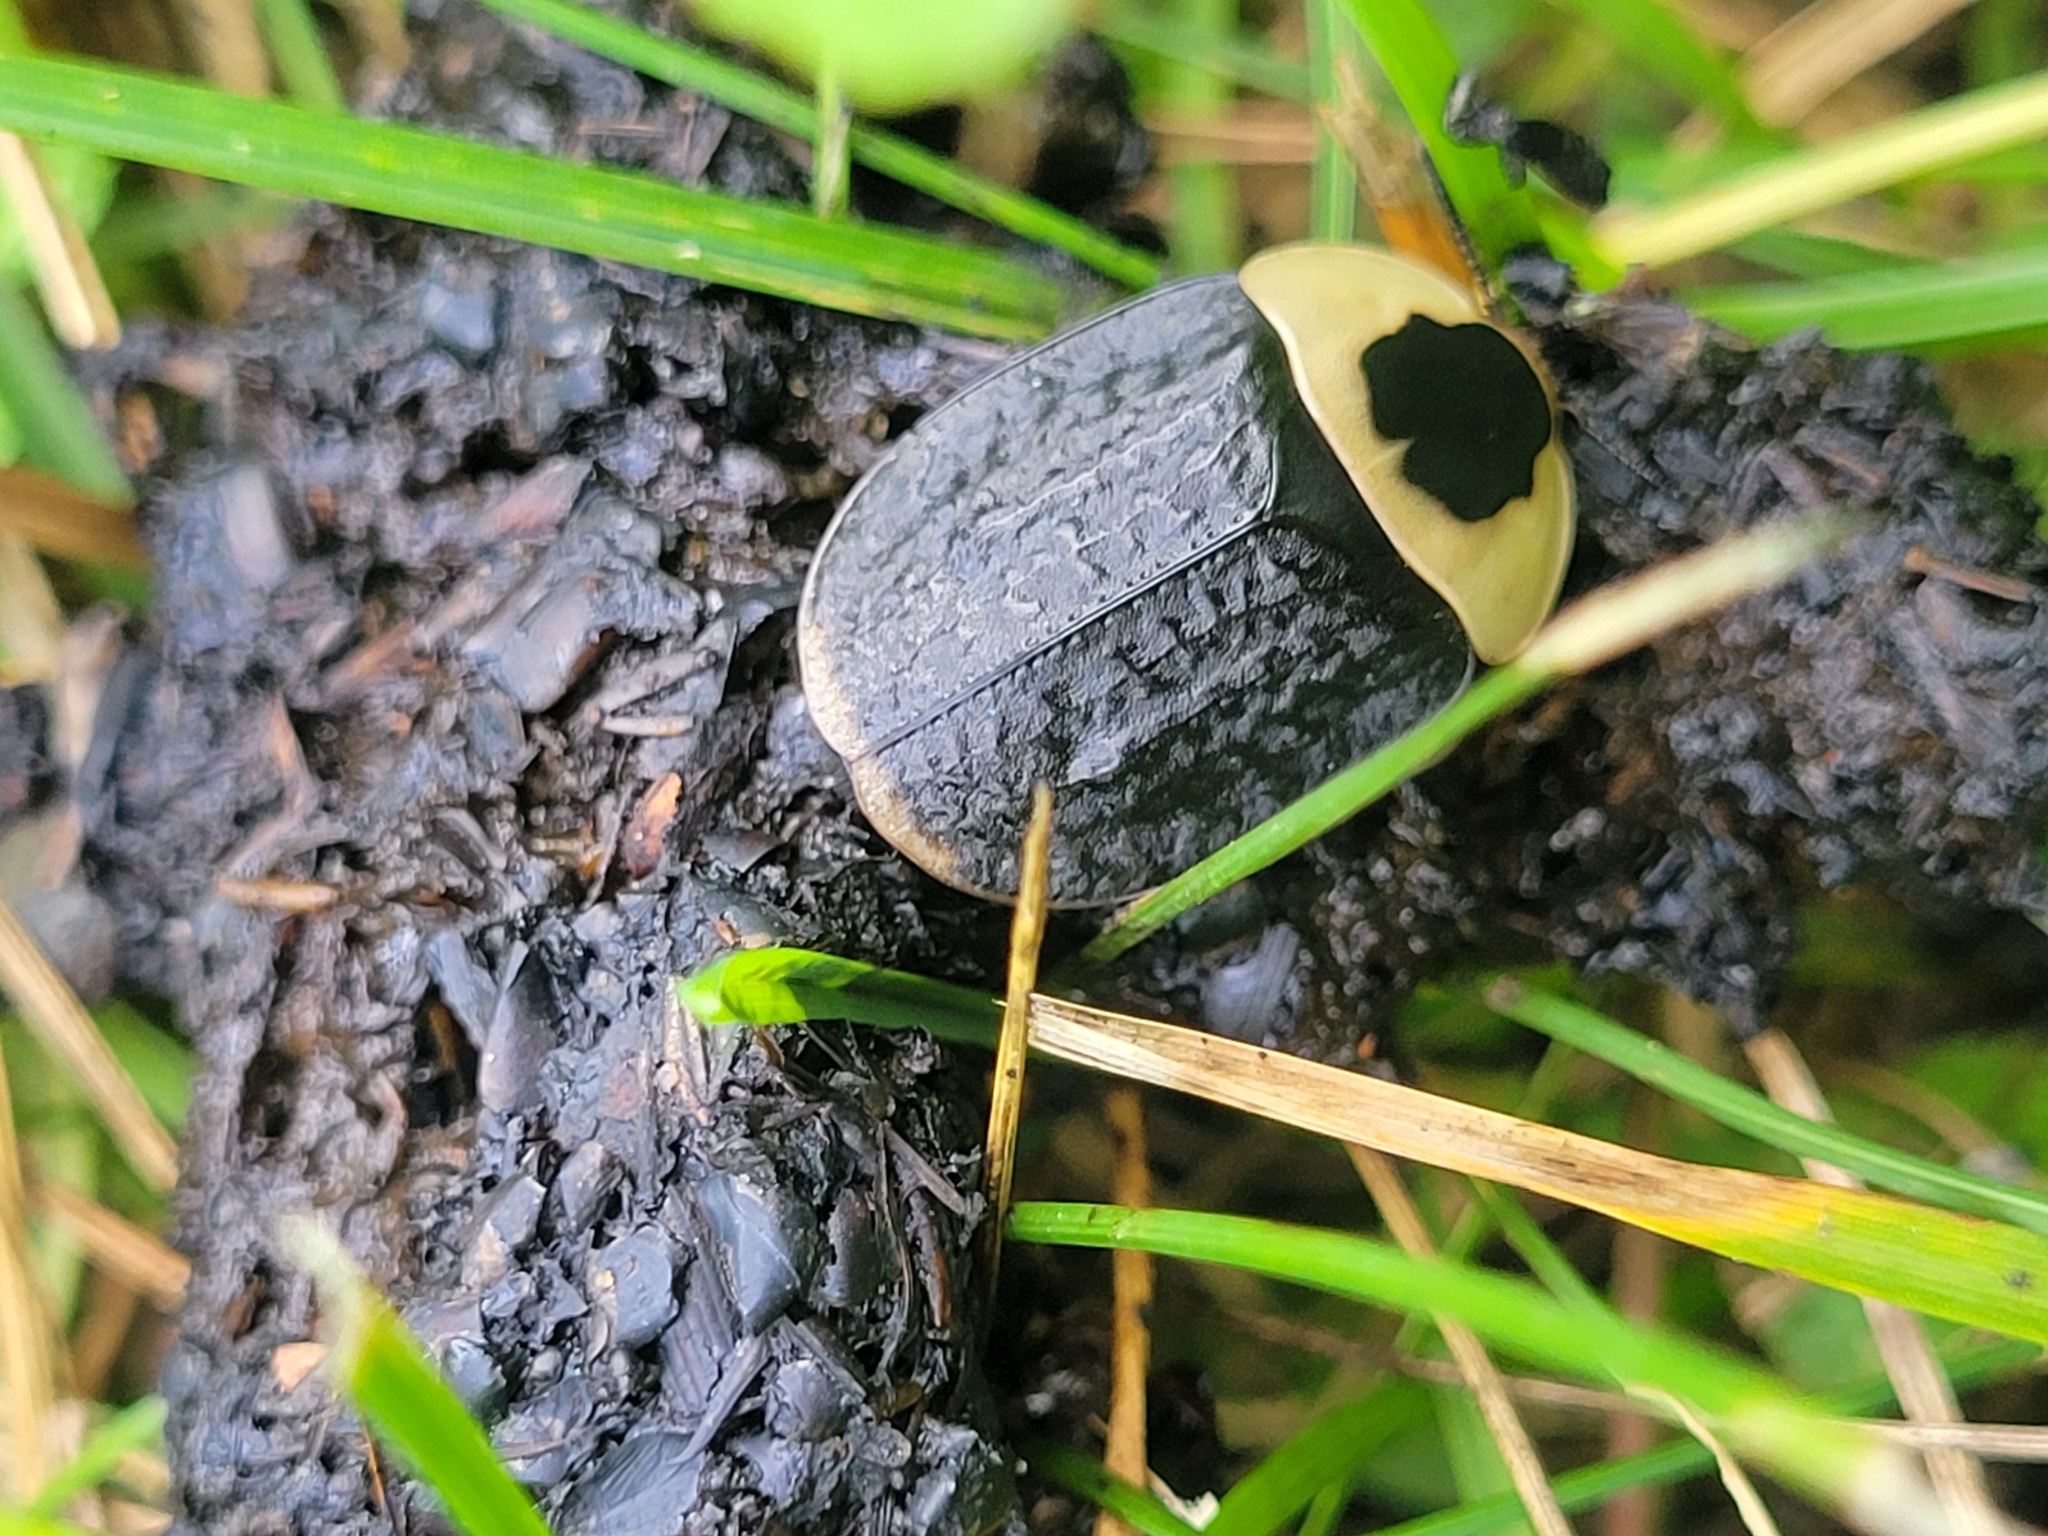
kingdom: Animalia
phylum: Arthropoda
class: Insecta
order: Coleoptera
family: Staphylinidae
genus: Necrophila
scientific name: Necrophila americana
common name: American carrion beetle
